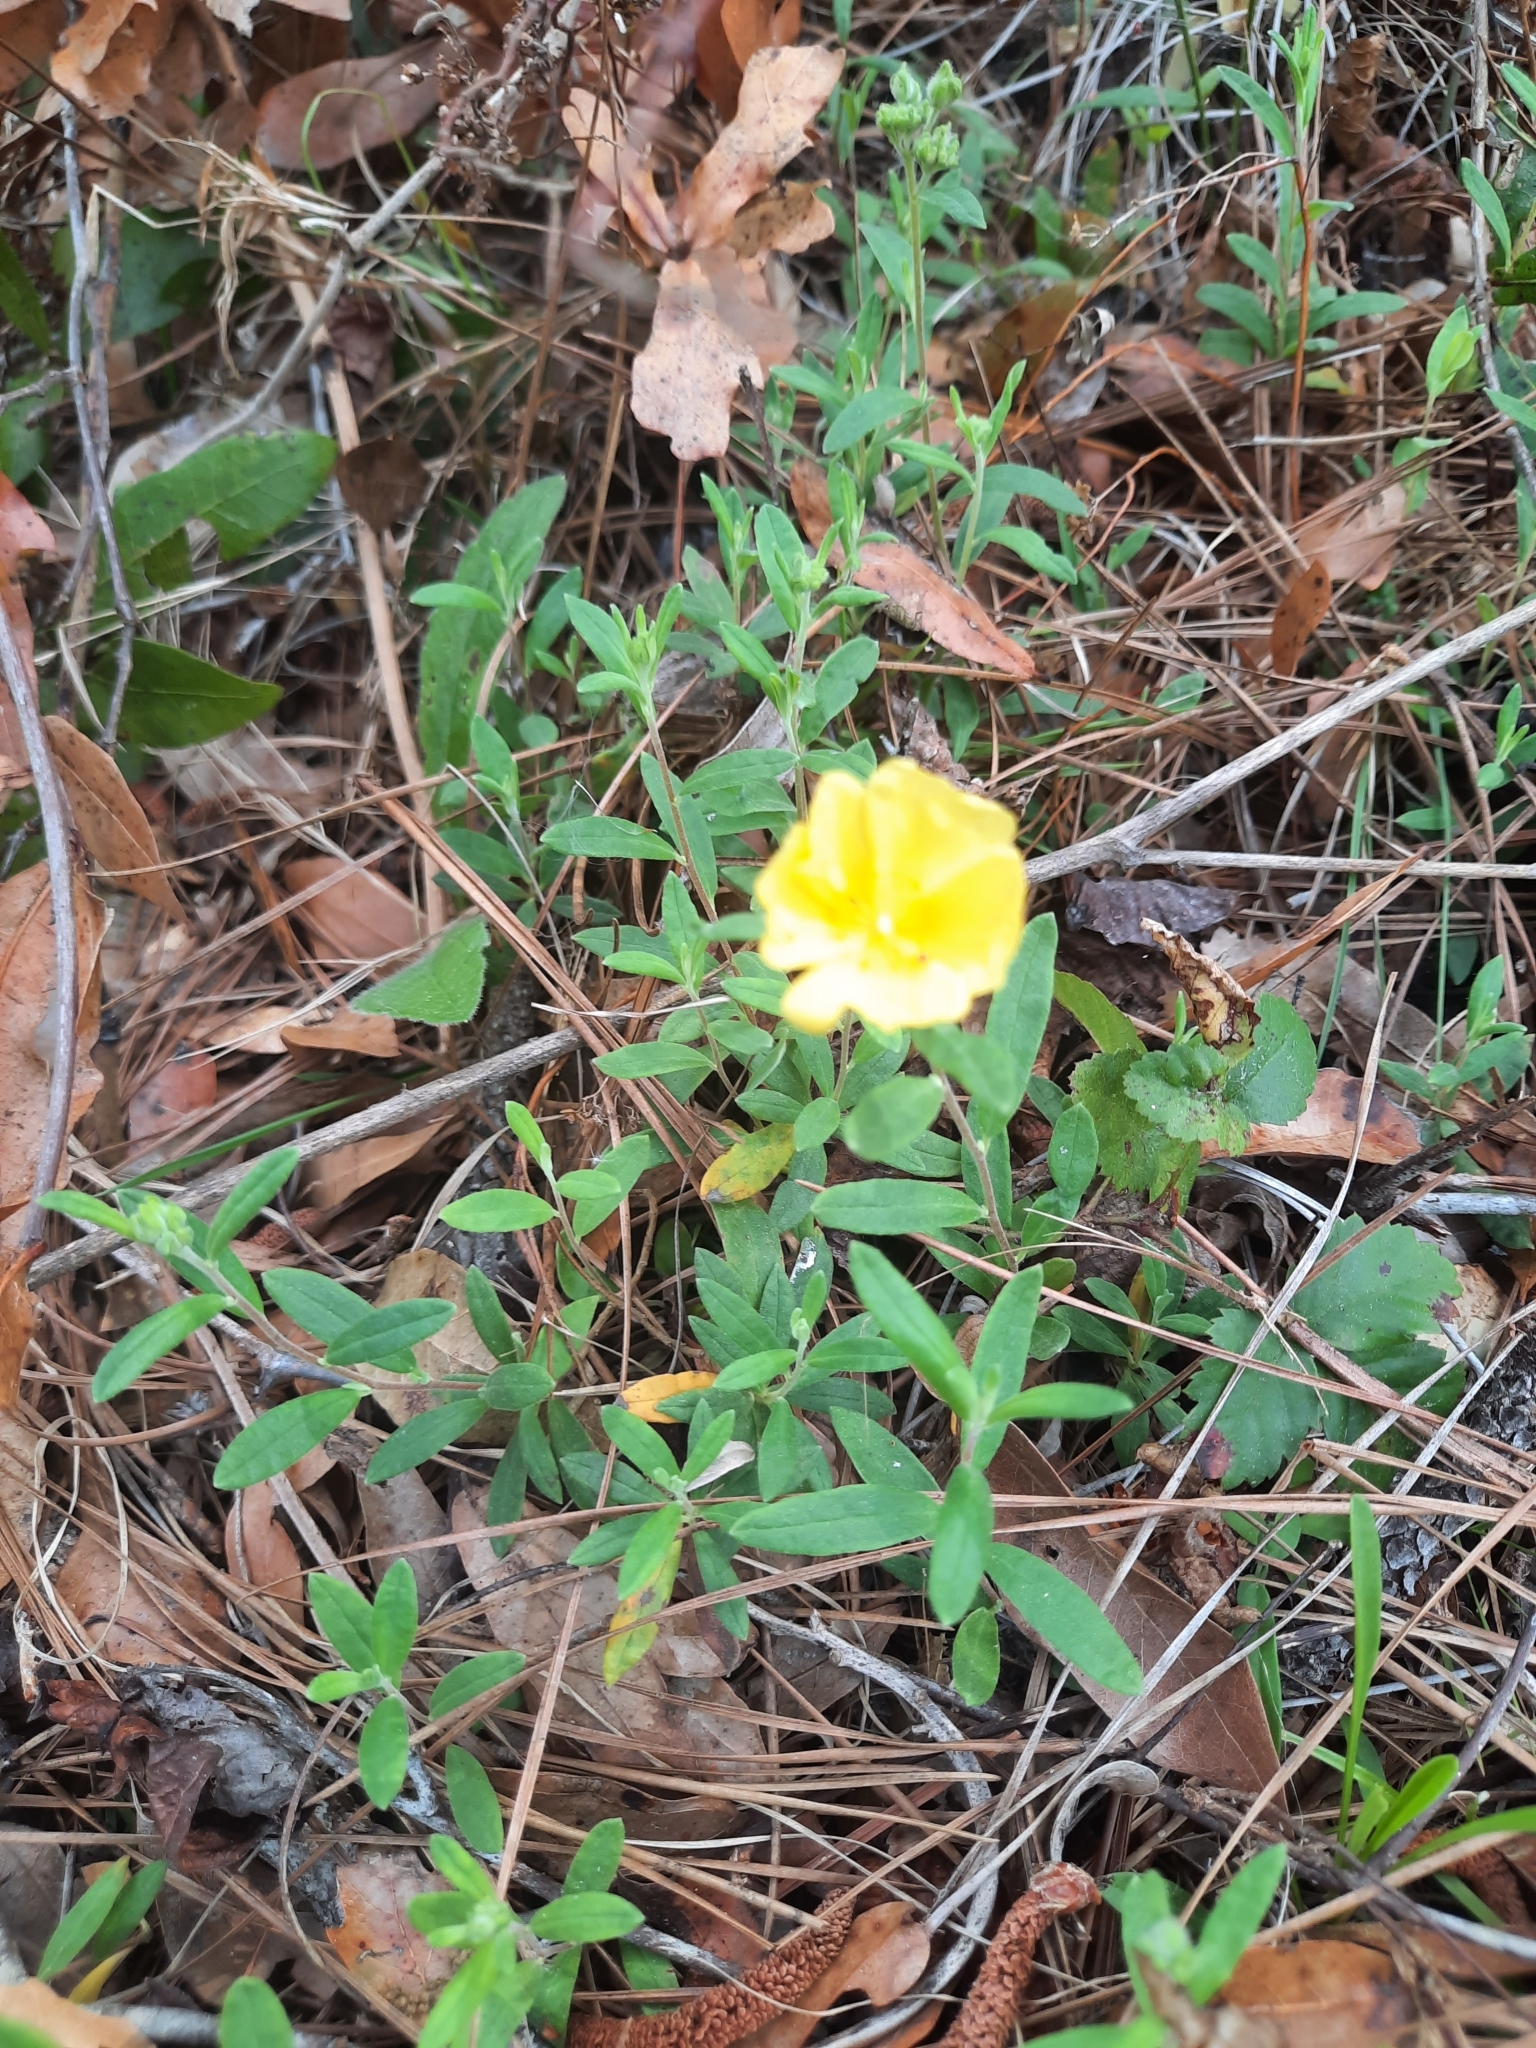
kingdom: Plantae
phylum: Tracheophyta
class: Magnoliopsida
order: Malvales
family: Cistaceae
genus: Crocanthemum
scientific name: Crocanthemum corymbosum
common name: Pinebarren sun-rose
